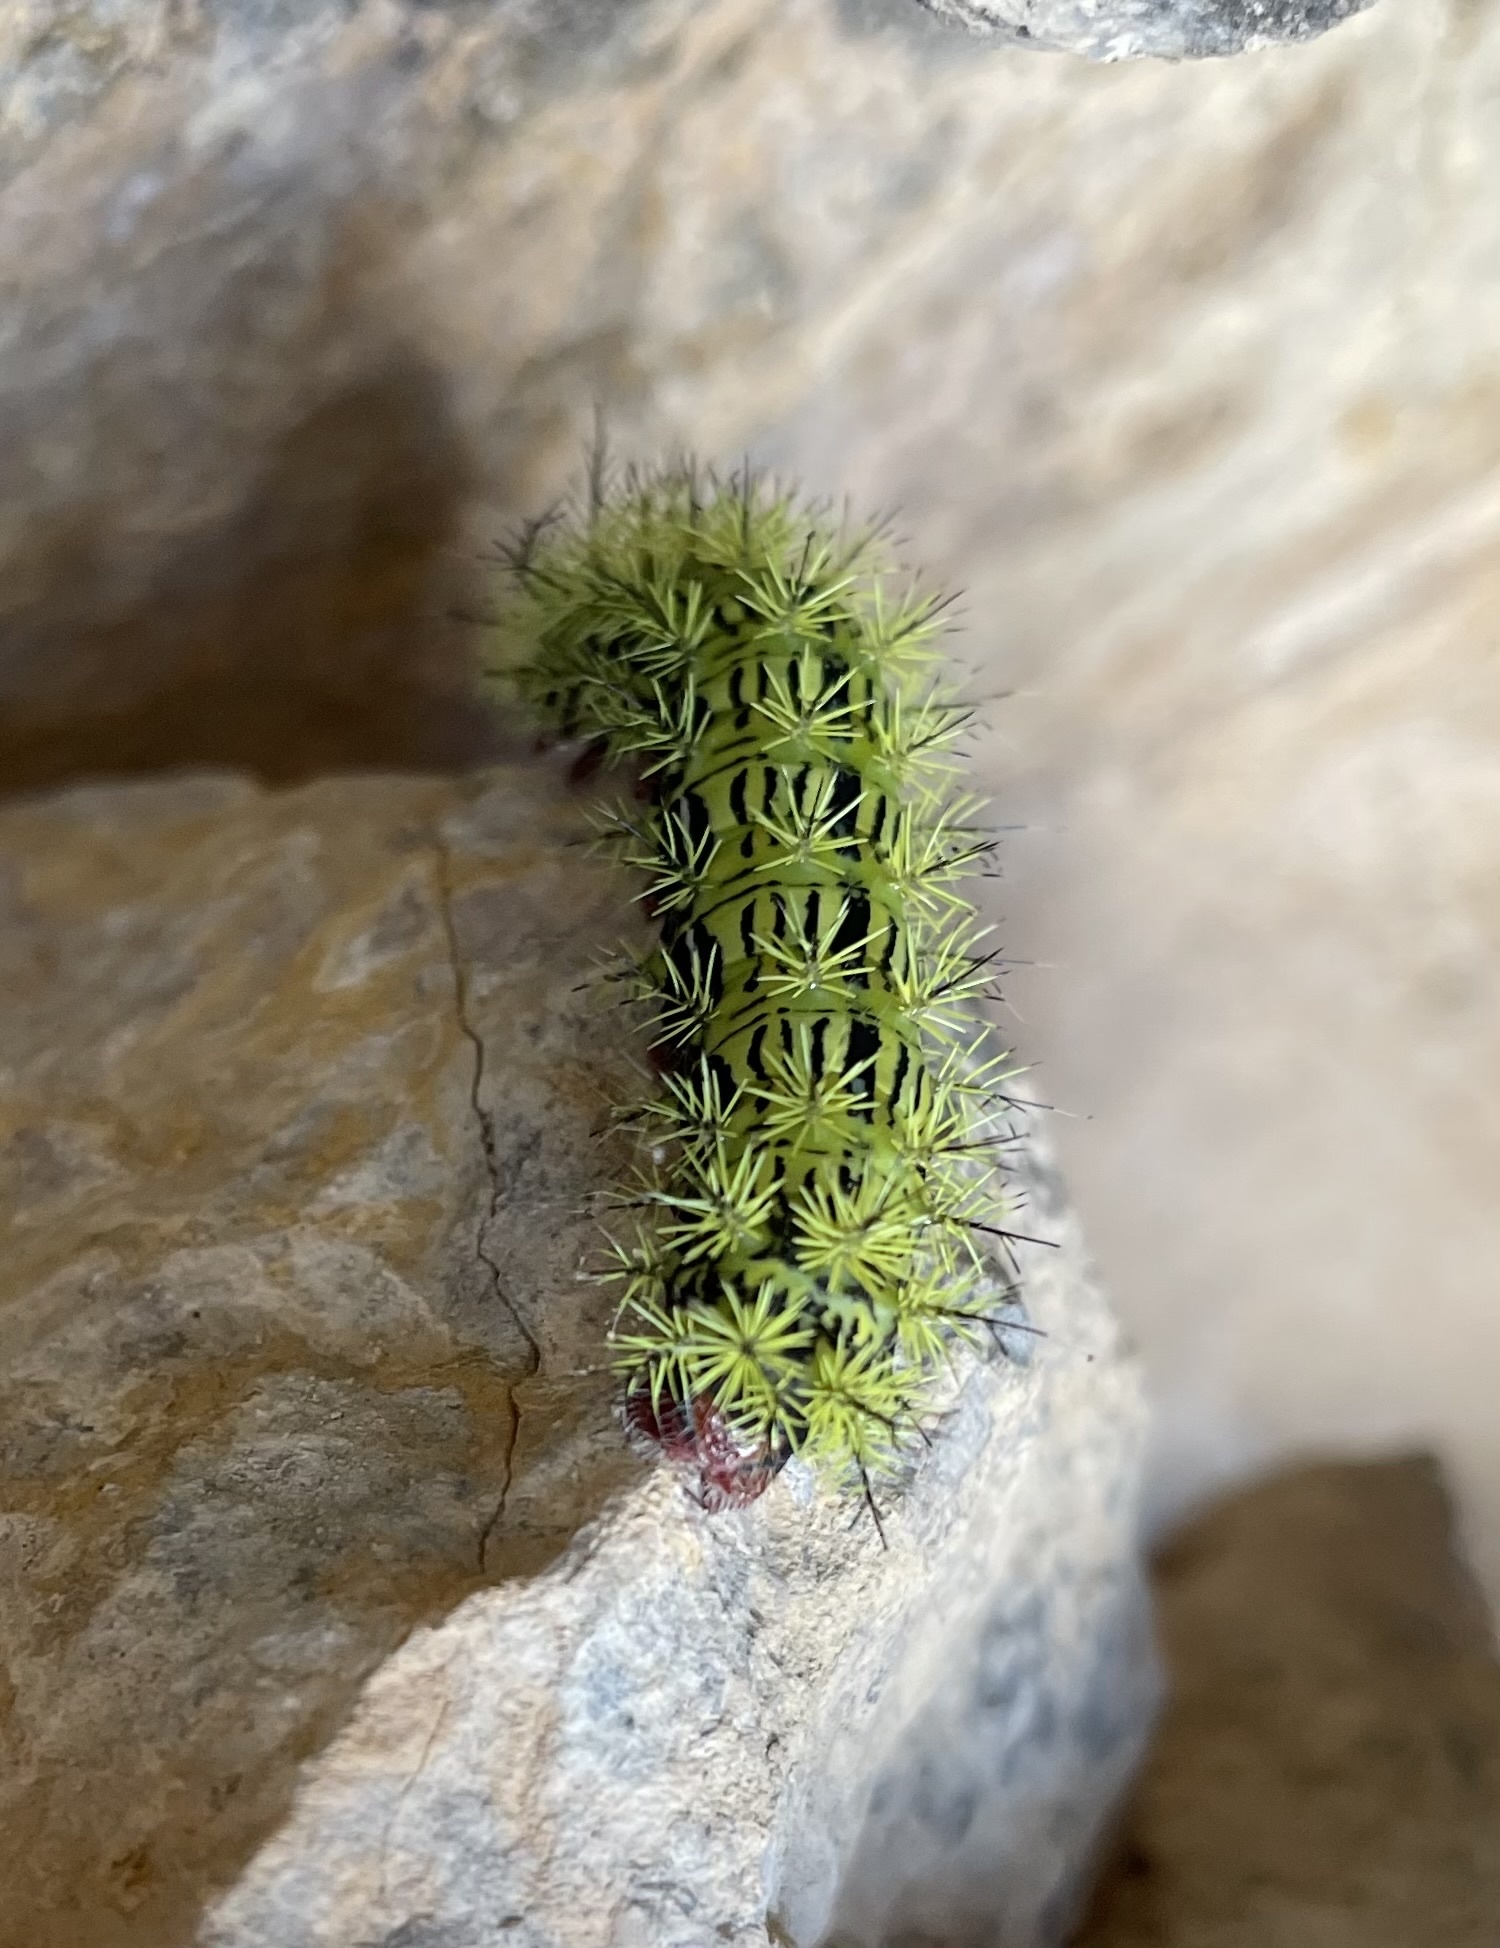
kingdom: Animalia
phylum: Arthropoda
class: Insecta
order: Lepidoptera
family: Saturniidae
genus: Automeris
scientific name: Automeris zephyria
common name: Zephyr eyed silkmoth
